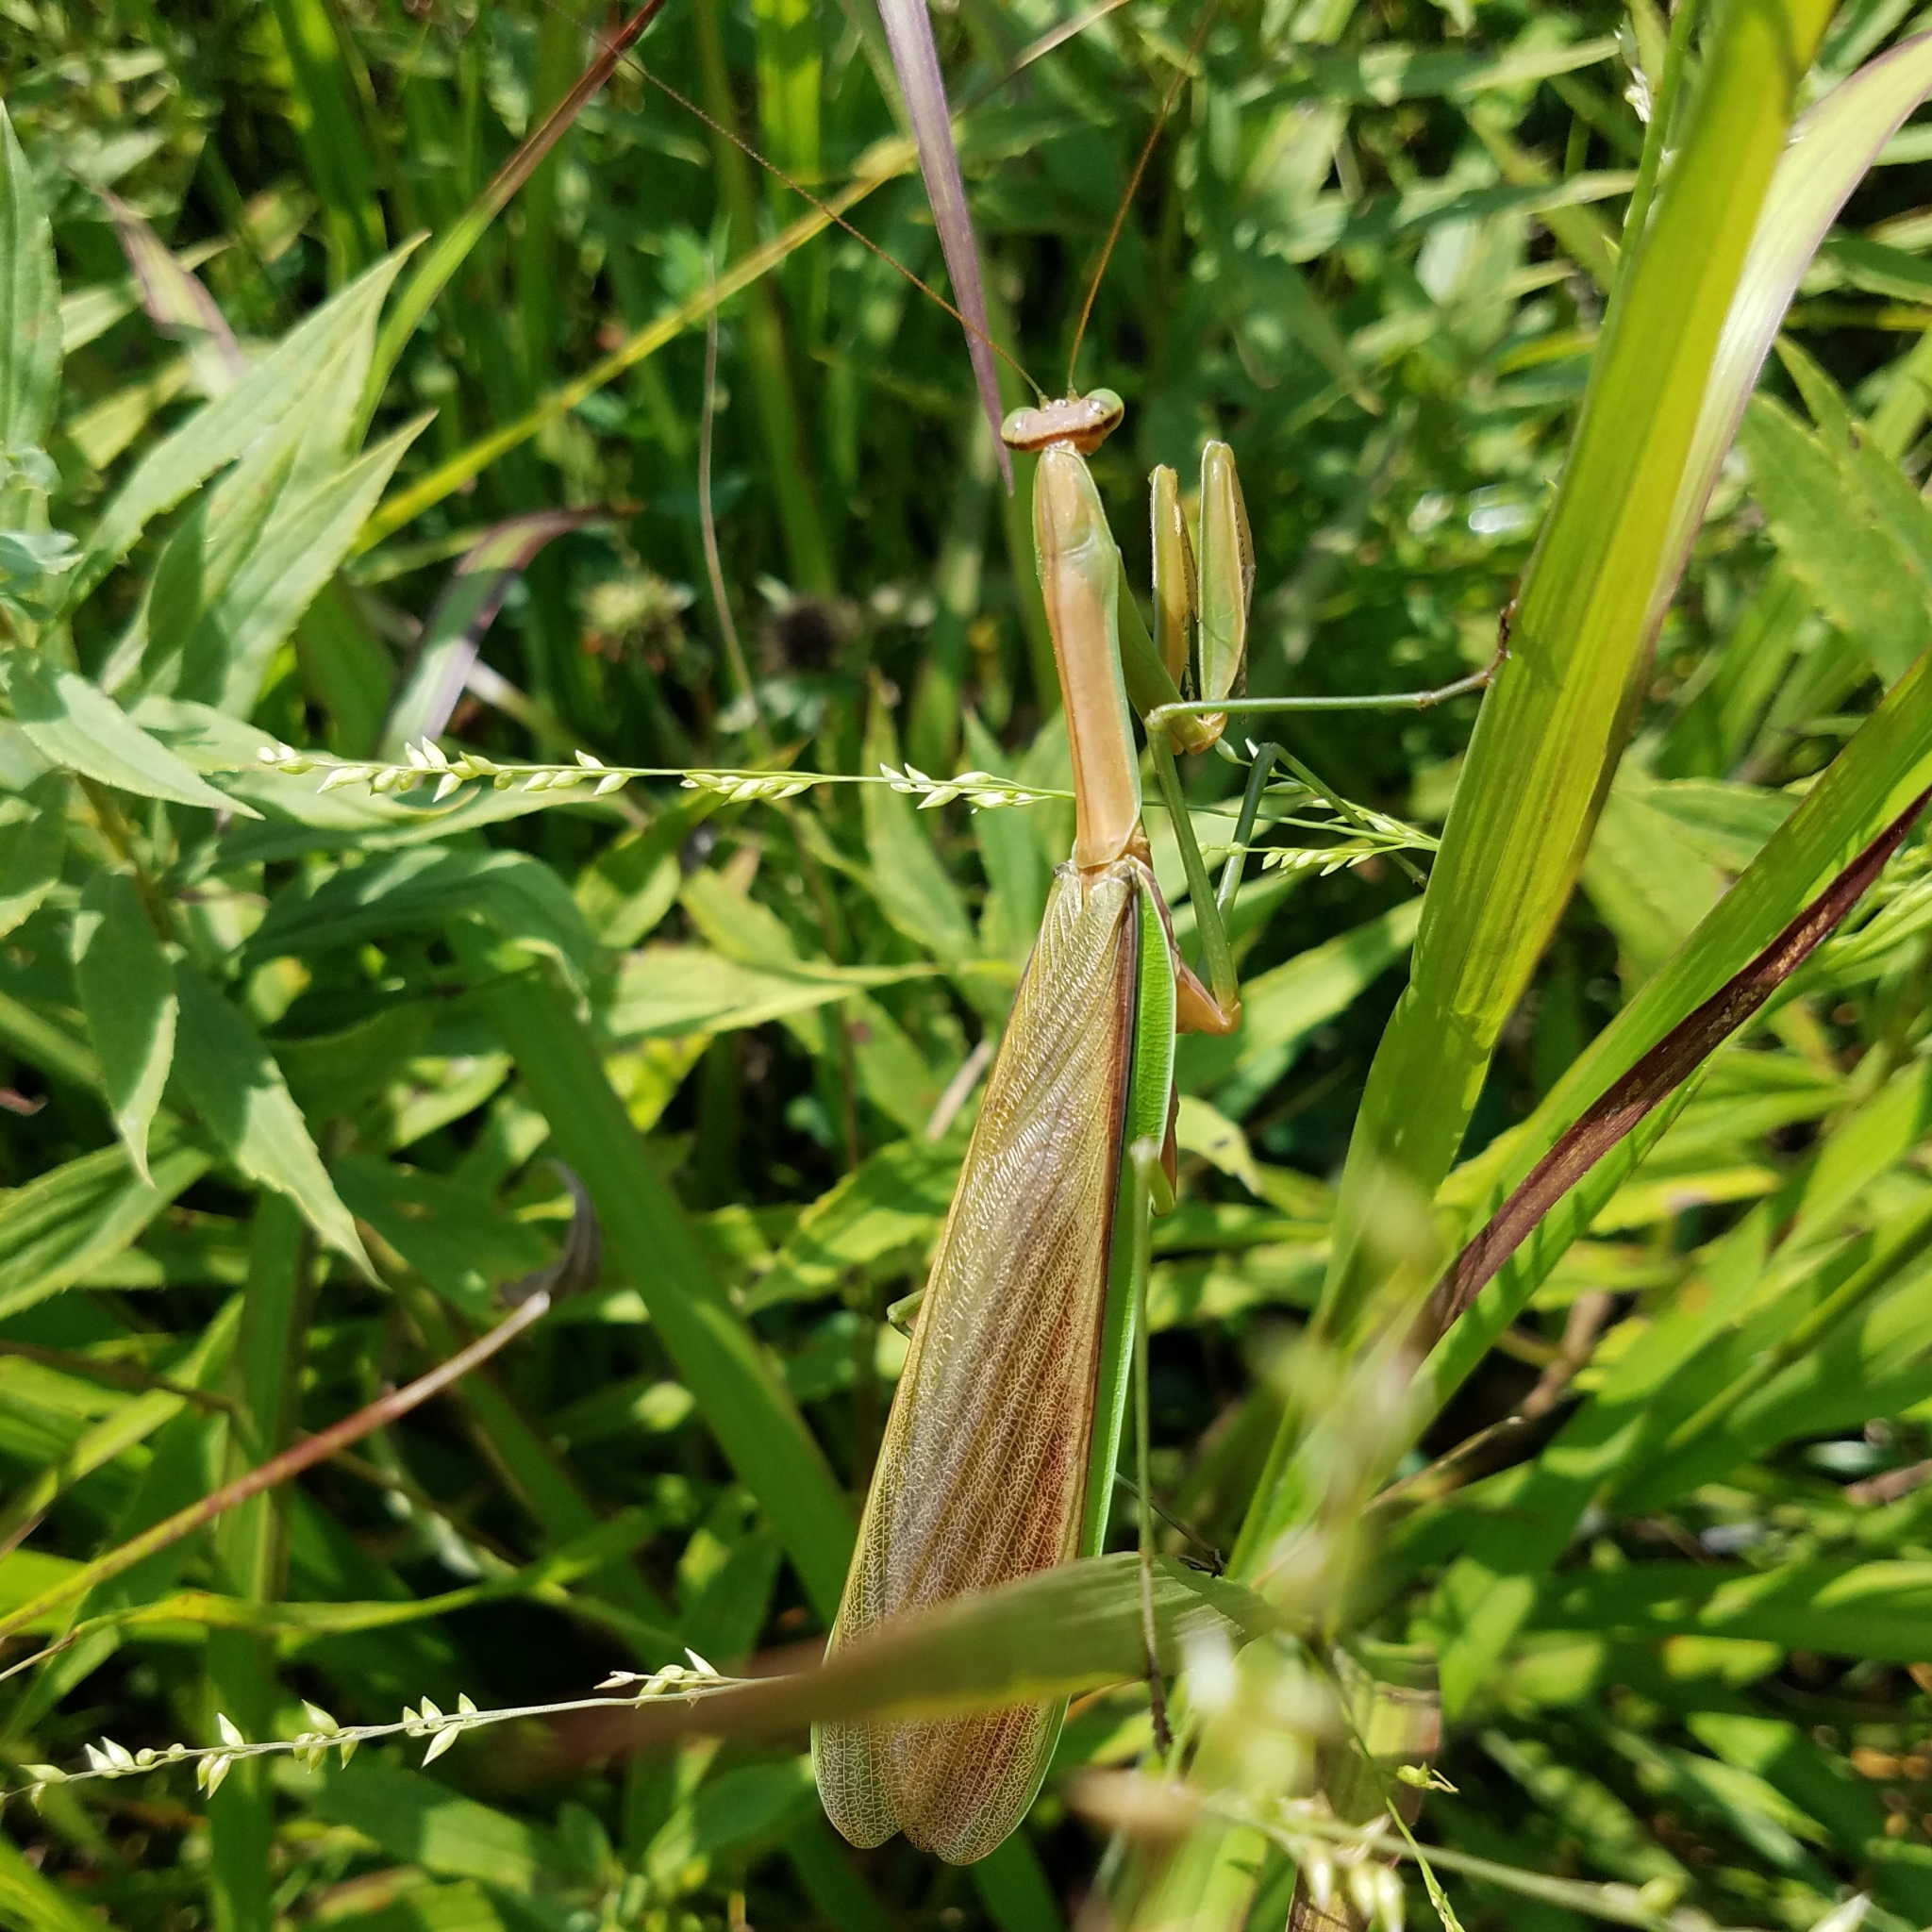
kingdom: Animalia
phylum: Arthropoda
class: Insecta
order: Mantodea
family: Mantidae
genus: Tenodera
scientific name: Tenodera sinensis
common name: Chinese mantis
